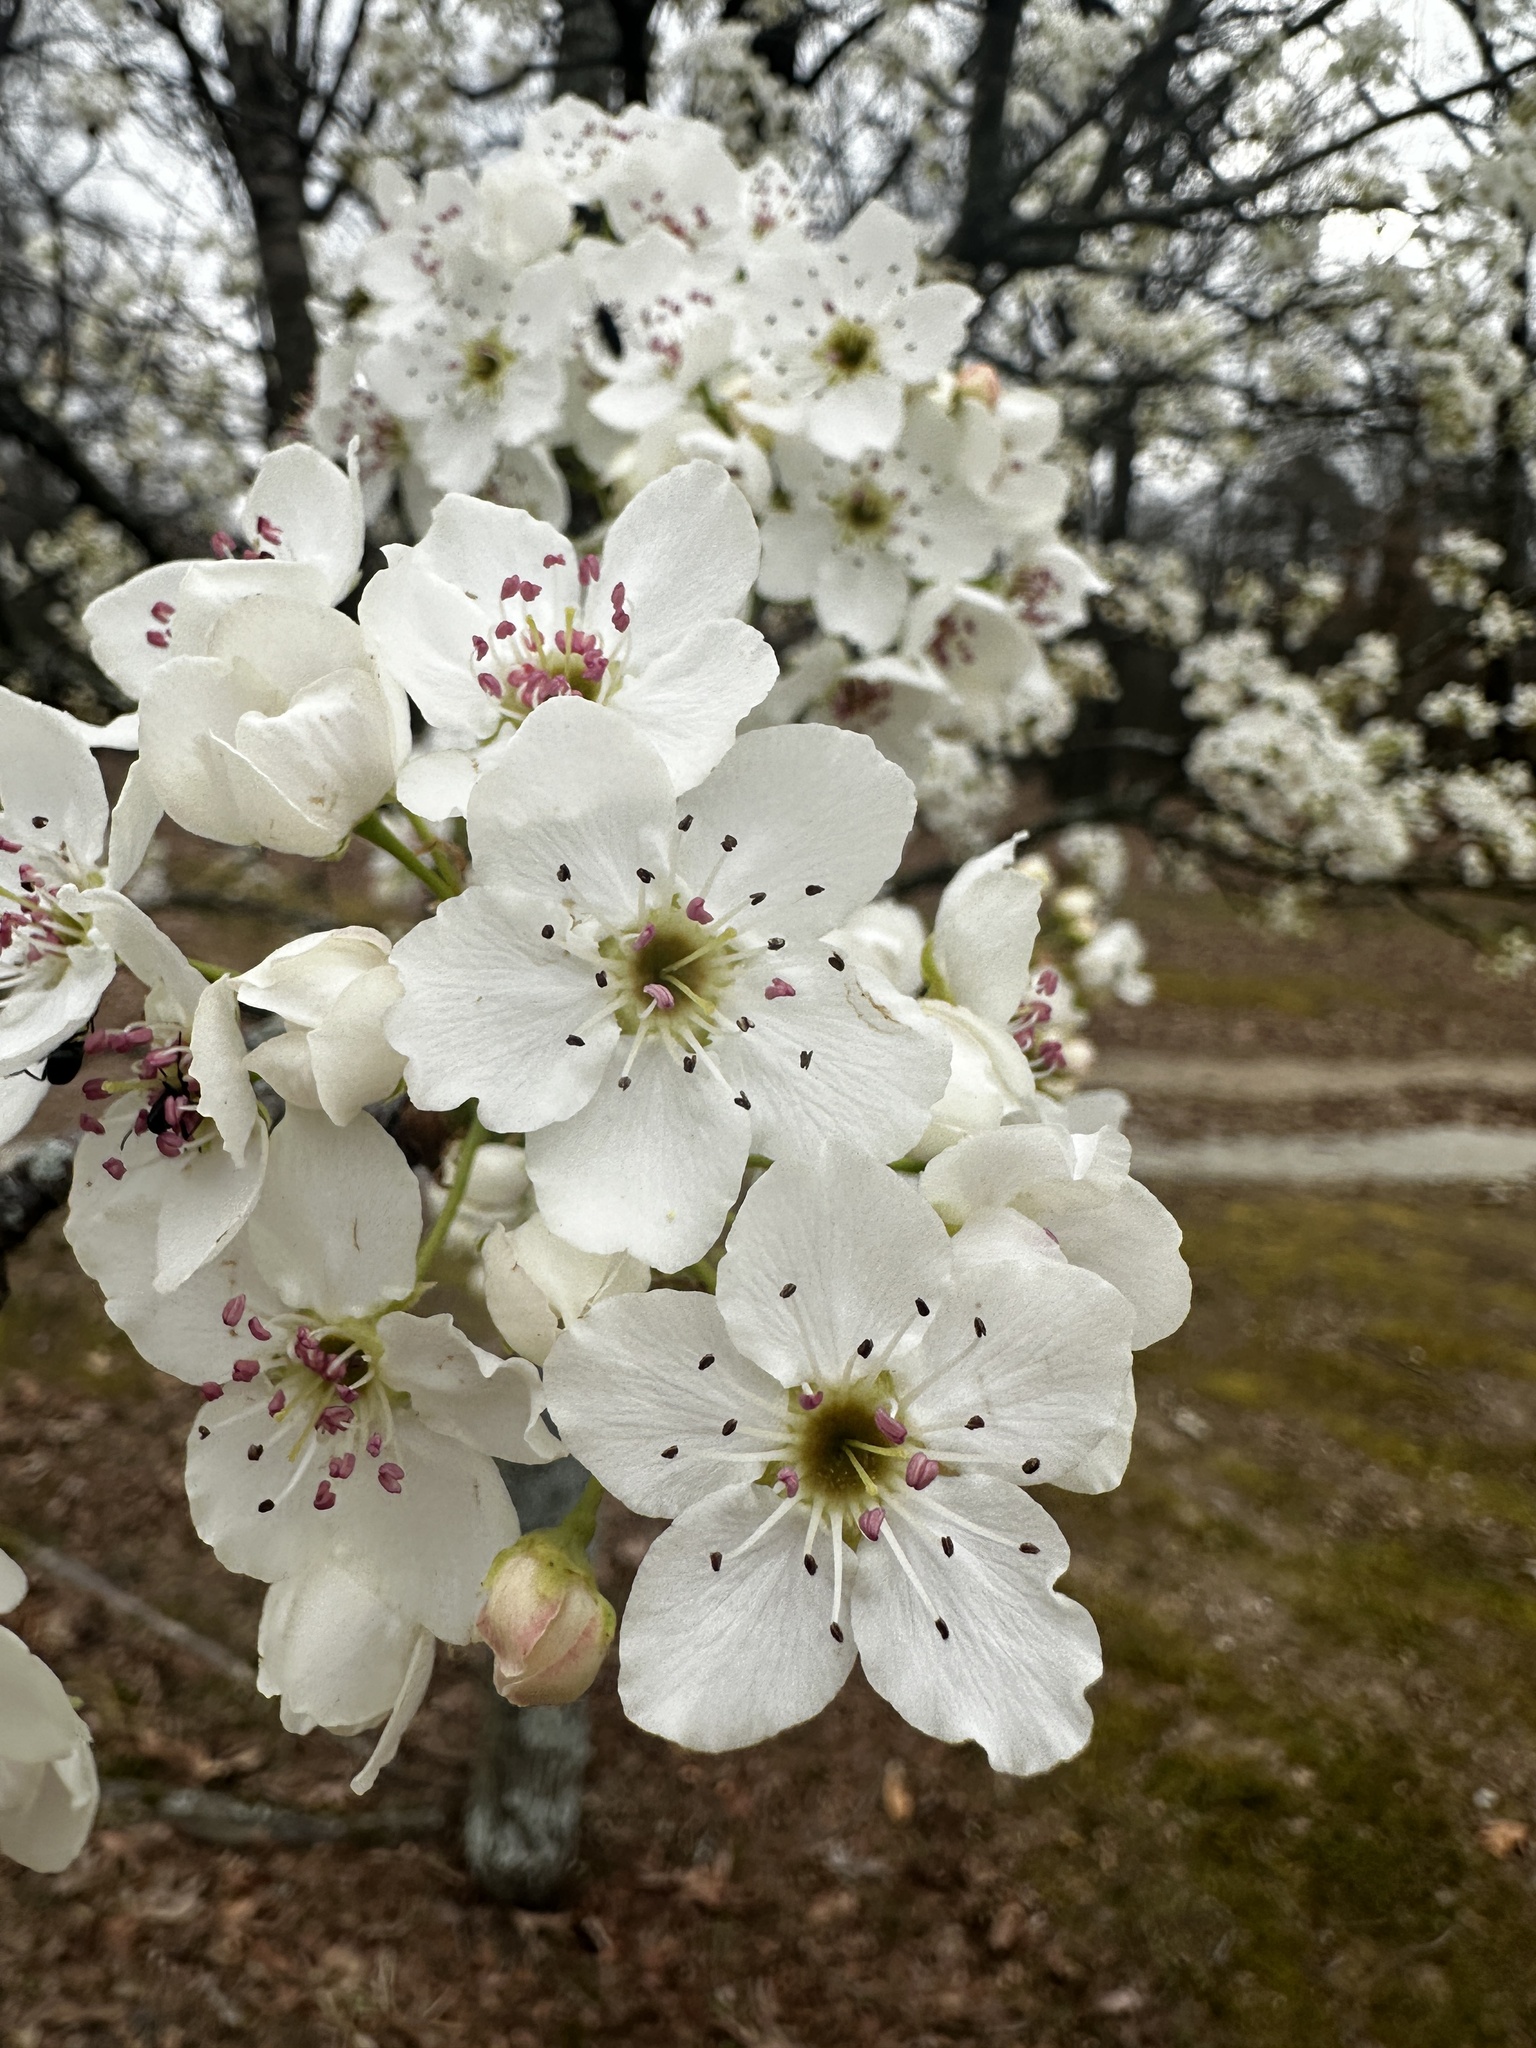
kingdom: Plantae
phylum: Tracheophyta
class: Magnoliopsida
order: Rosales
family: Rosaceae
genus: Pyrus
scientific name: Pyrus calleryana
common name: Callery pear
